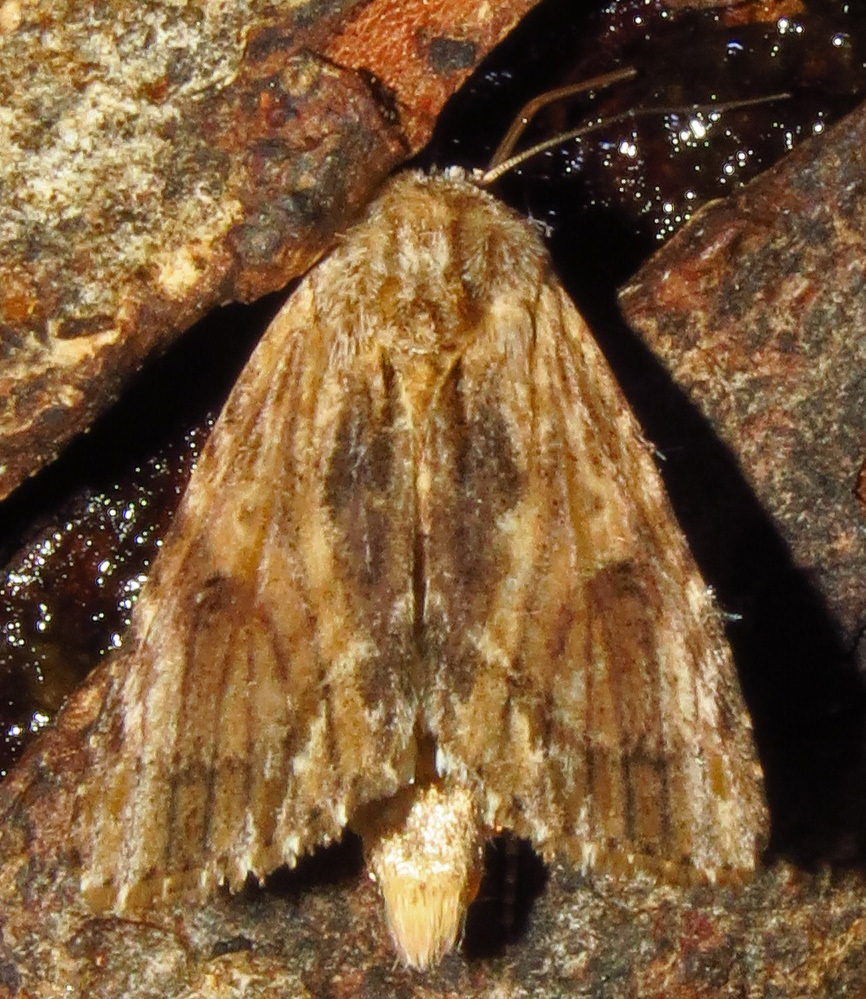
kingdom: Animalia
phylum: Arthropoda
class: Insecta
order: Lepidoptera
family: Noctuidae
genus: Spodoptera
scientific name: Spodoptera eridania
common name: Southern army worm
